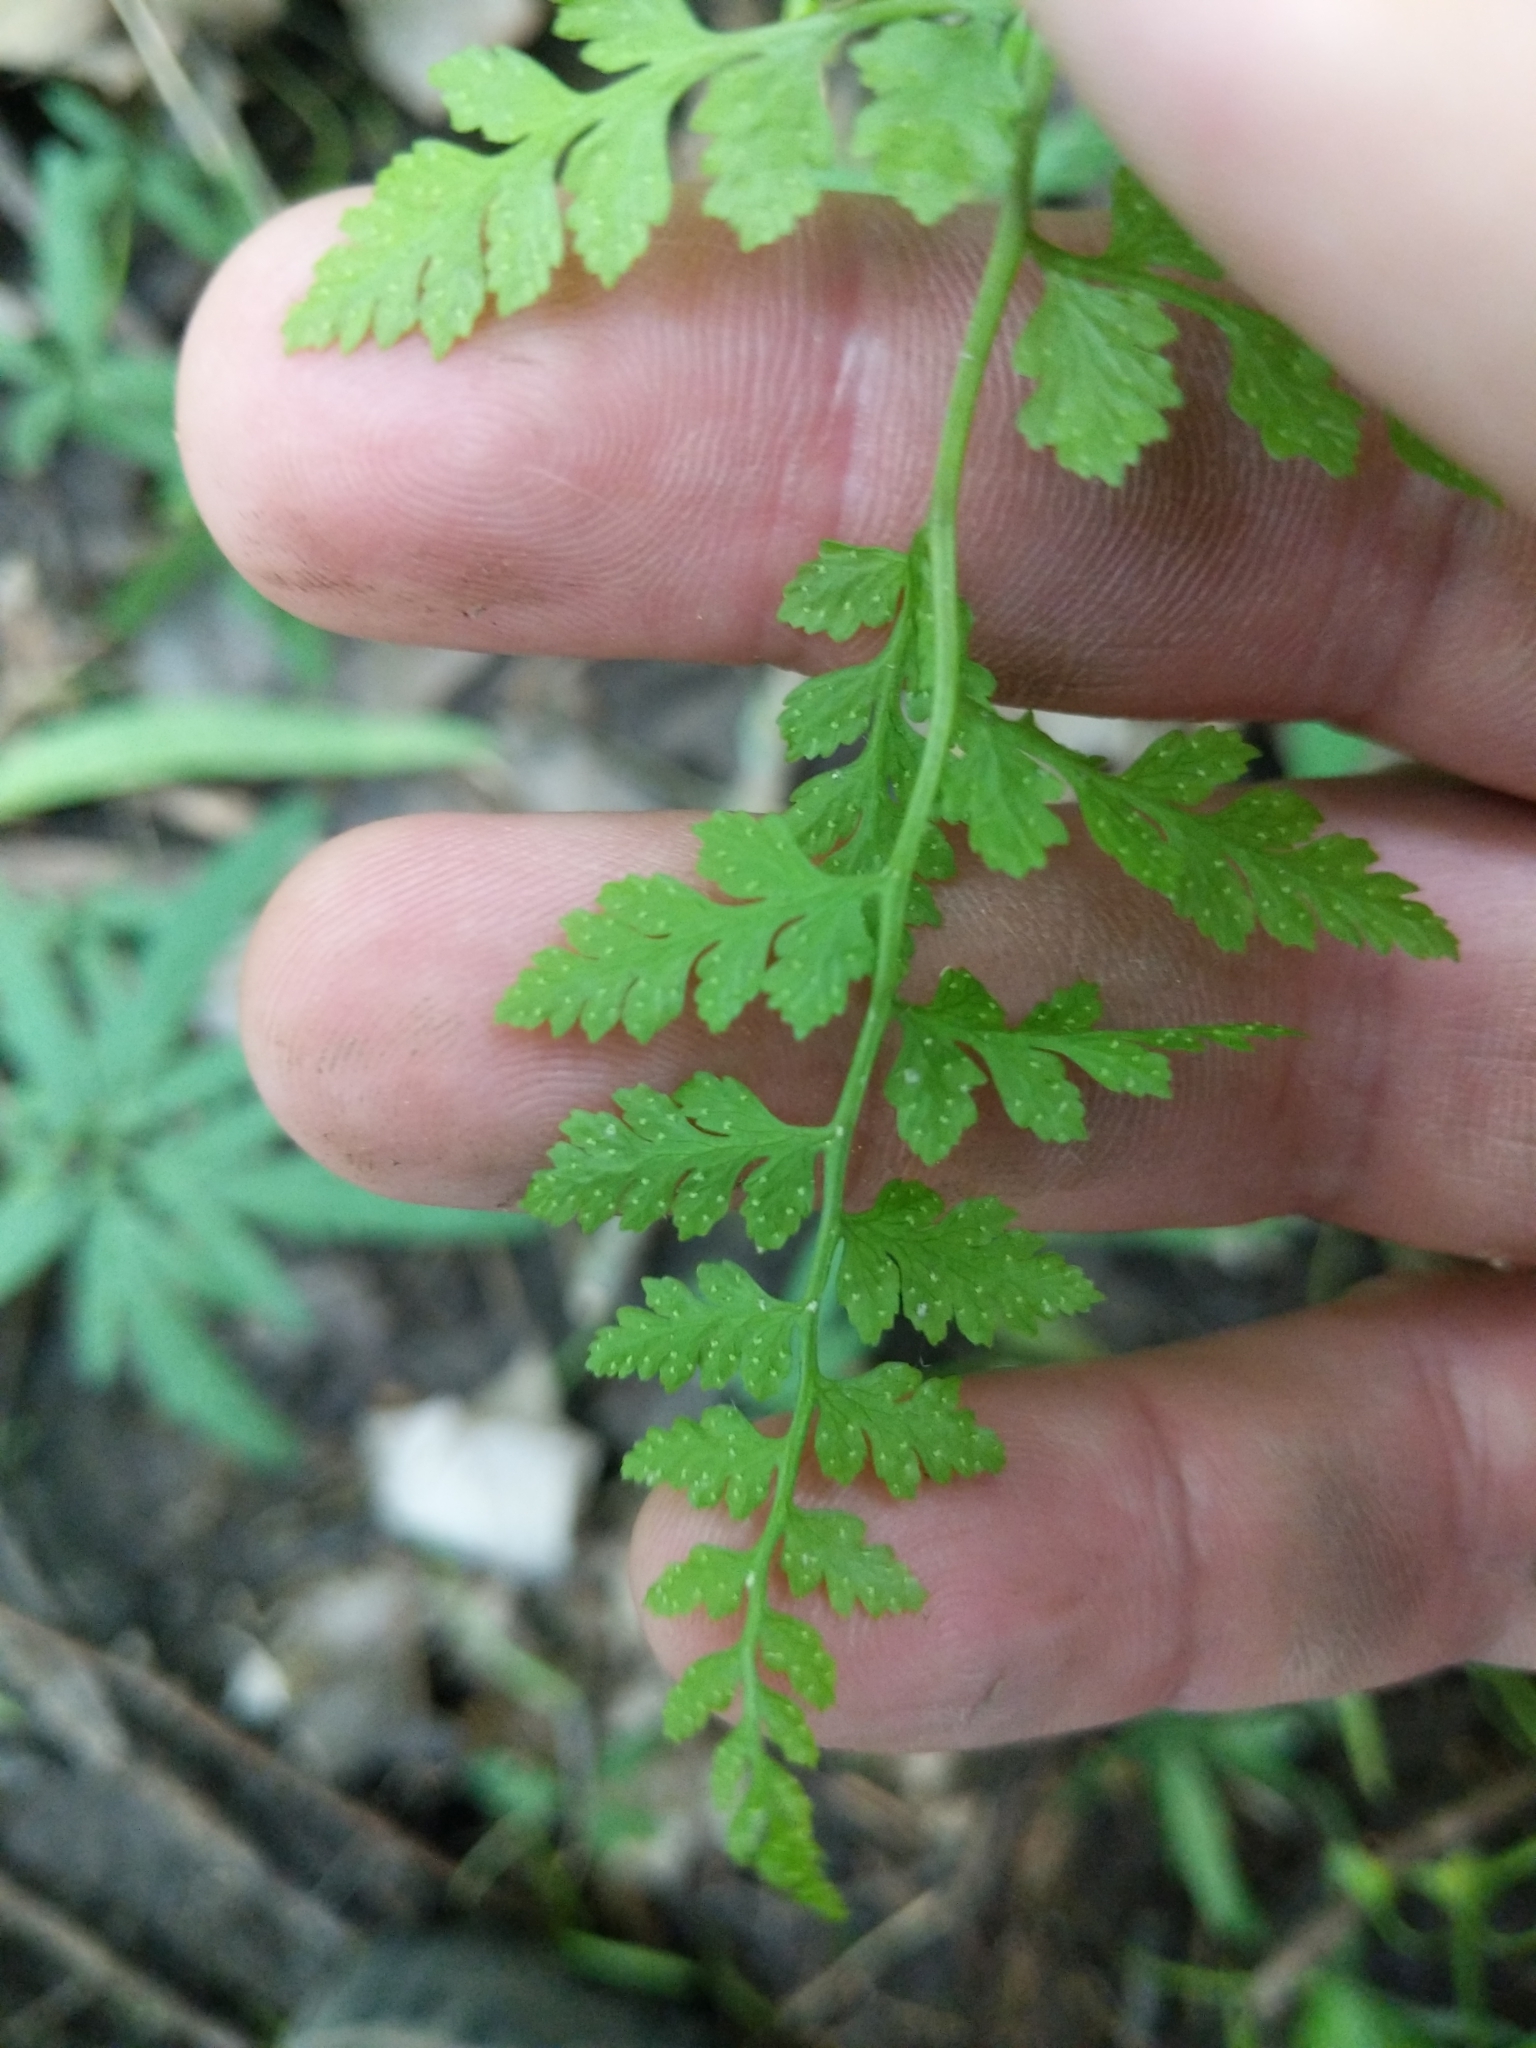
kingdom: Plantae
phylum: Tracheophyta
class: Polypodiopsida
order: Polypodiales
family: Cystopteridaceae
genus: Cystopteris
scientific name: Cystopteris protrusa
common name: Lowland brittle fern
